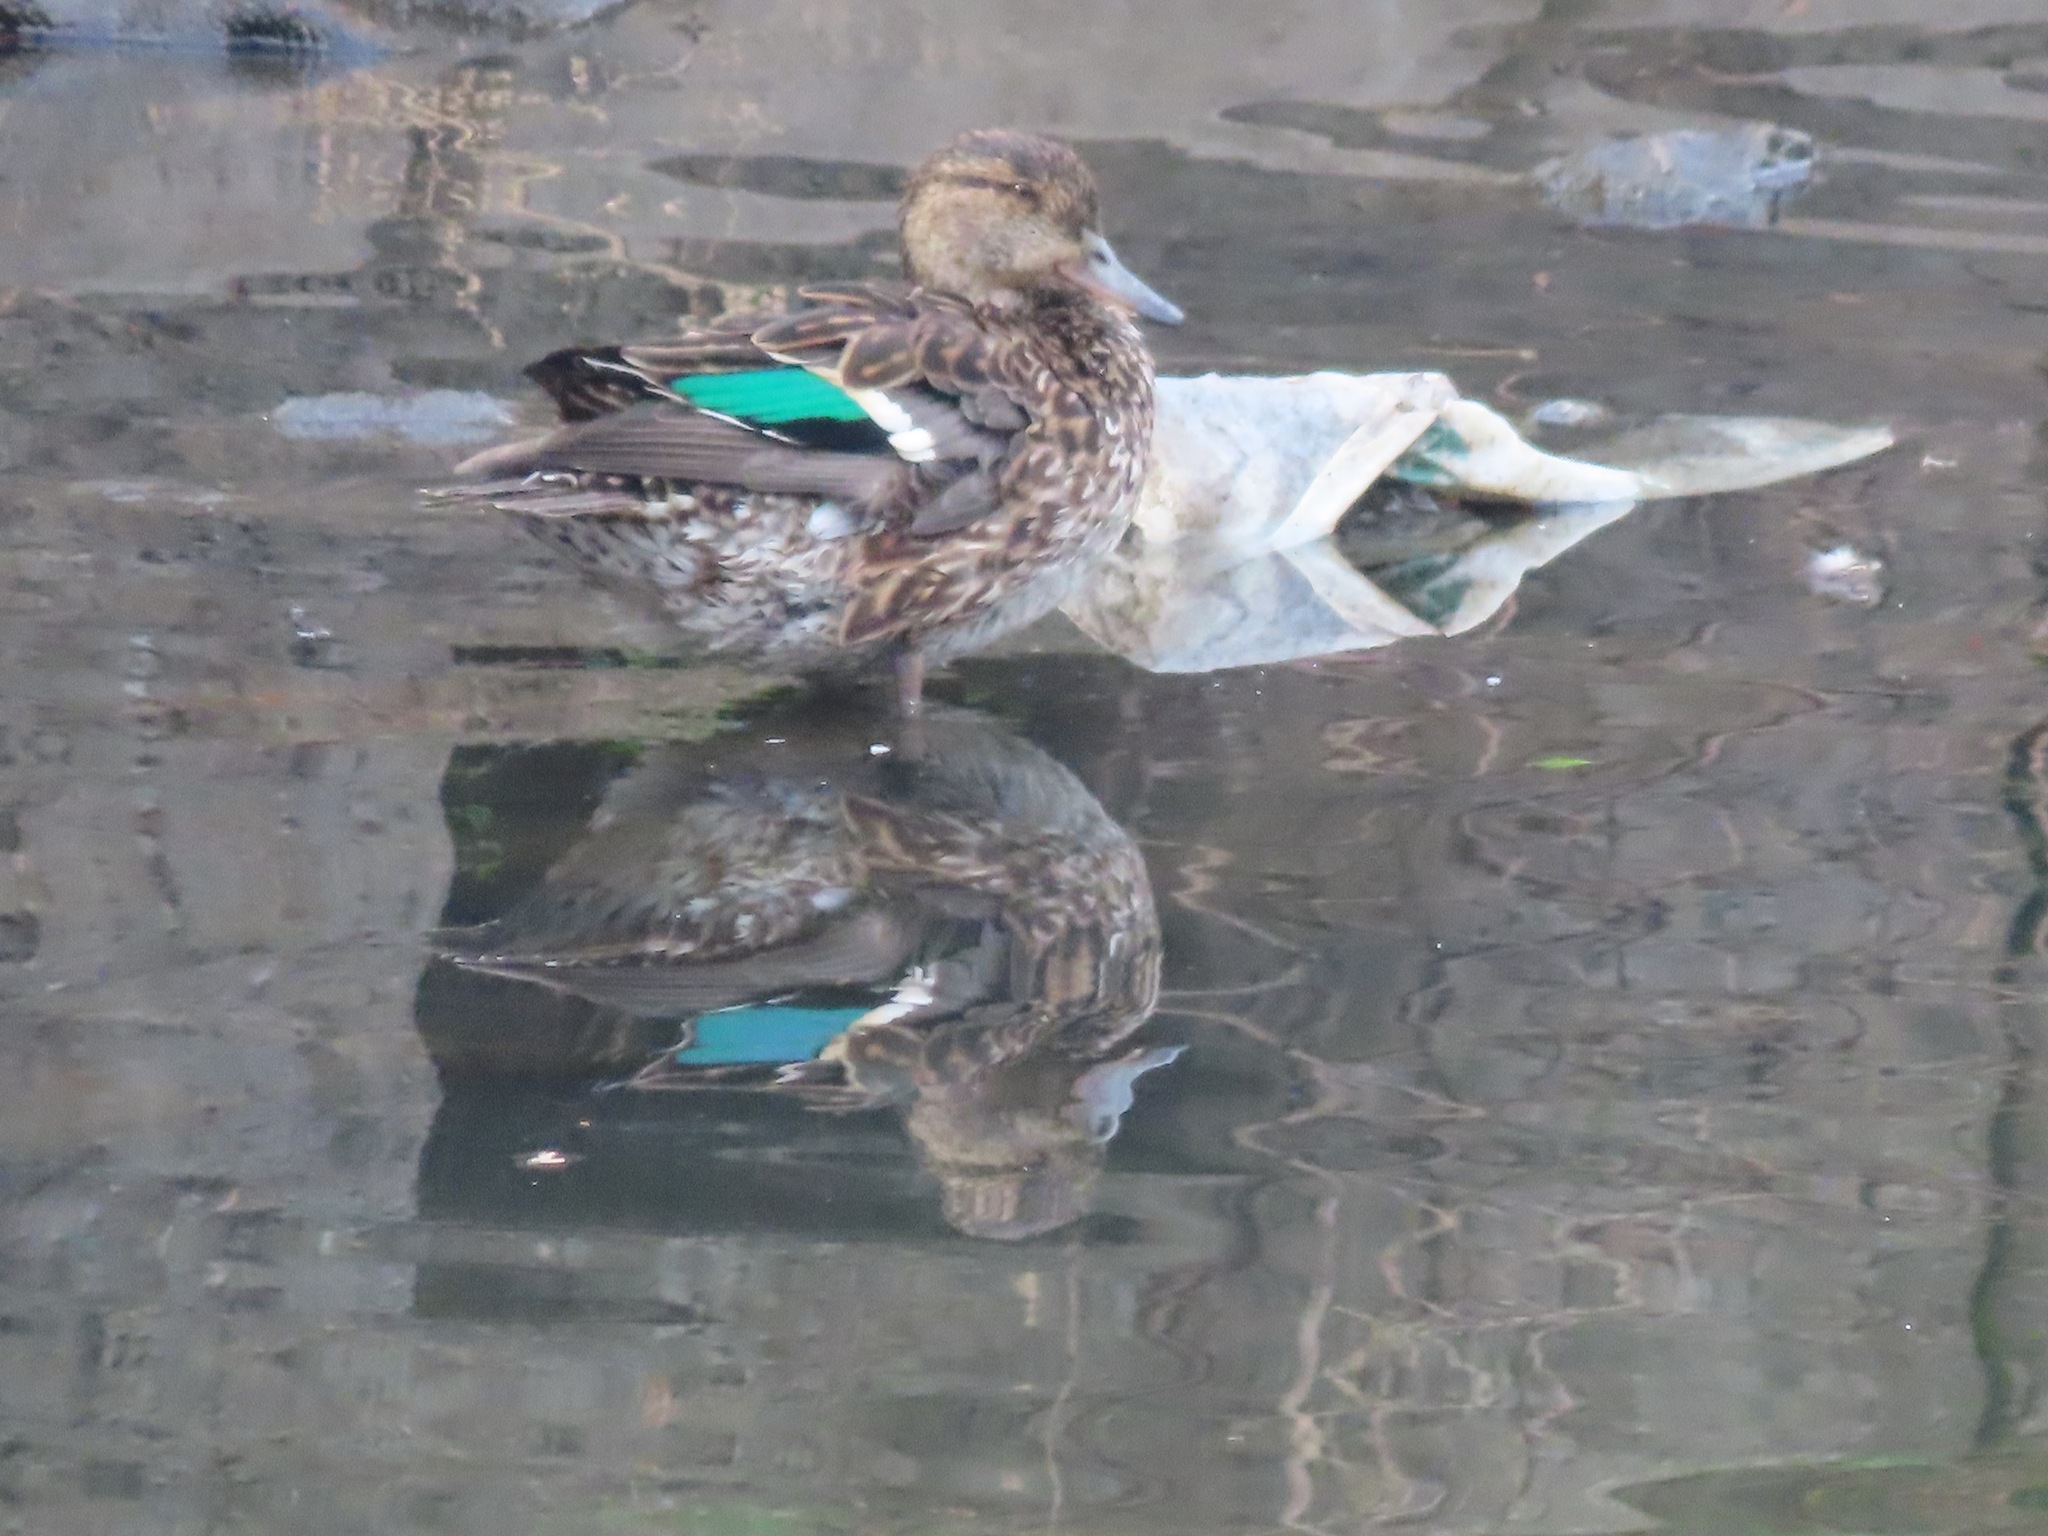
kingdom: Animalia
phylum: Chordata
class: Aves
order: Anseriformes
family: Anatidae
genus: Anas
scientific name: Anas crecca
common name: Eurasian teal
